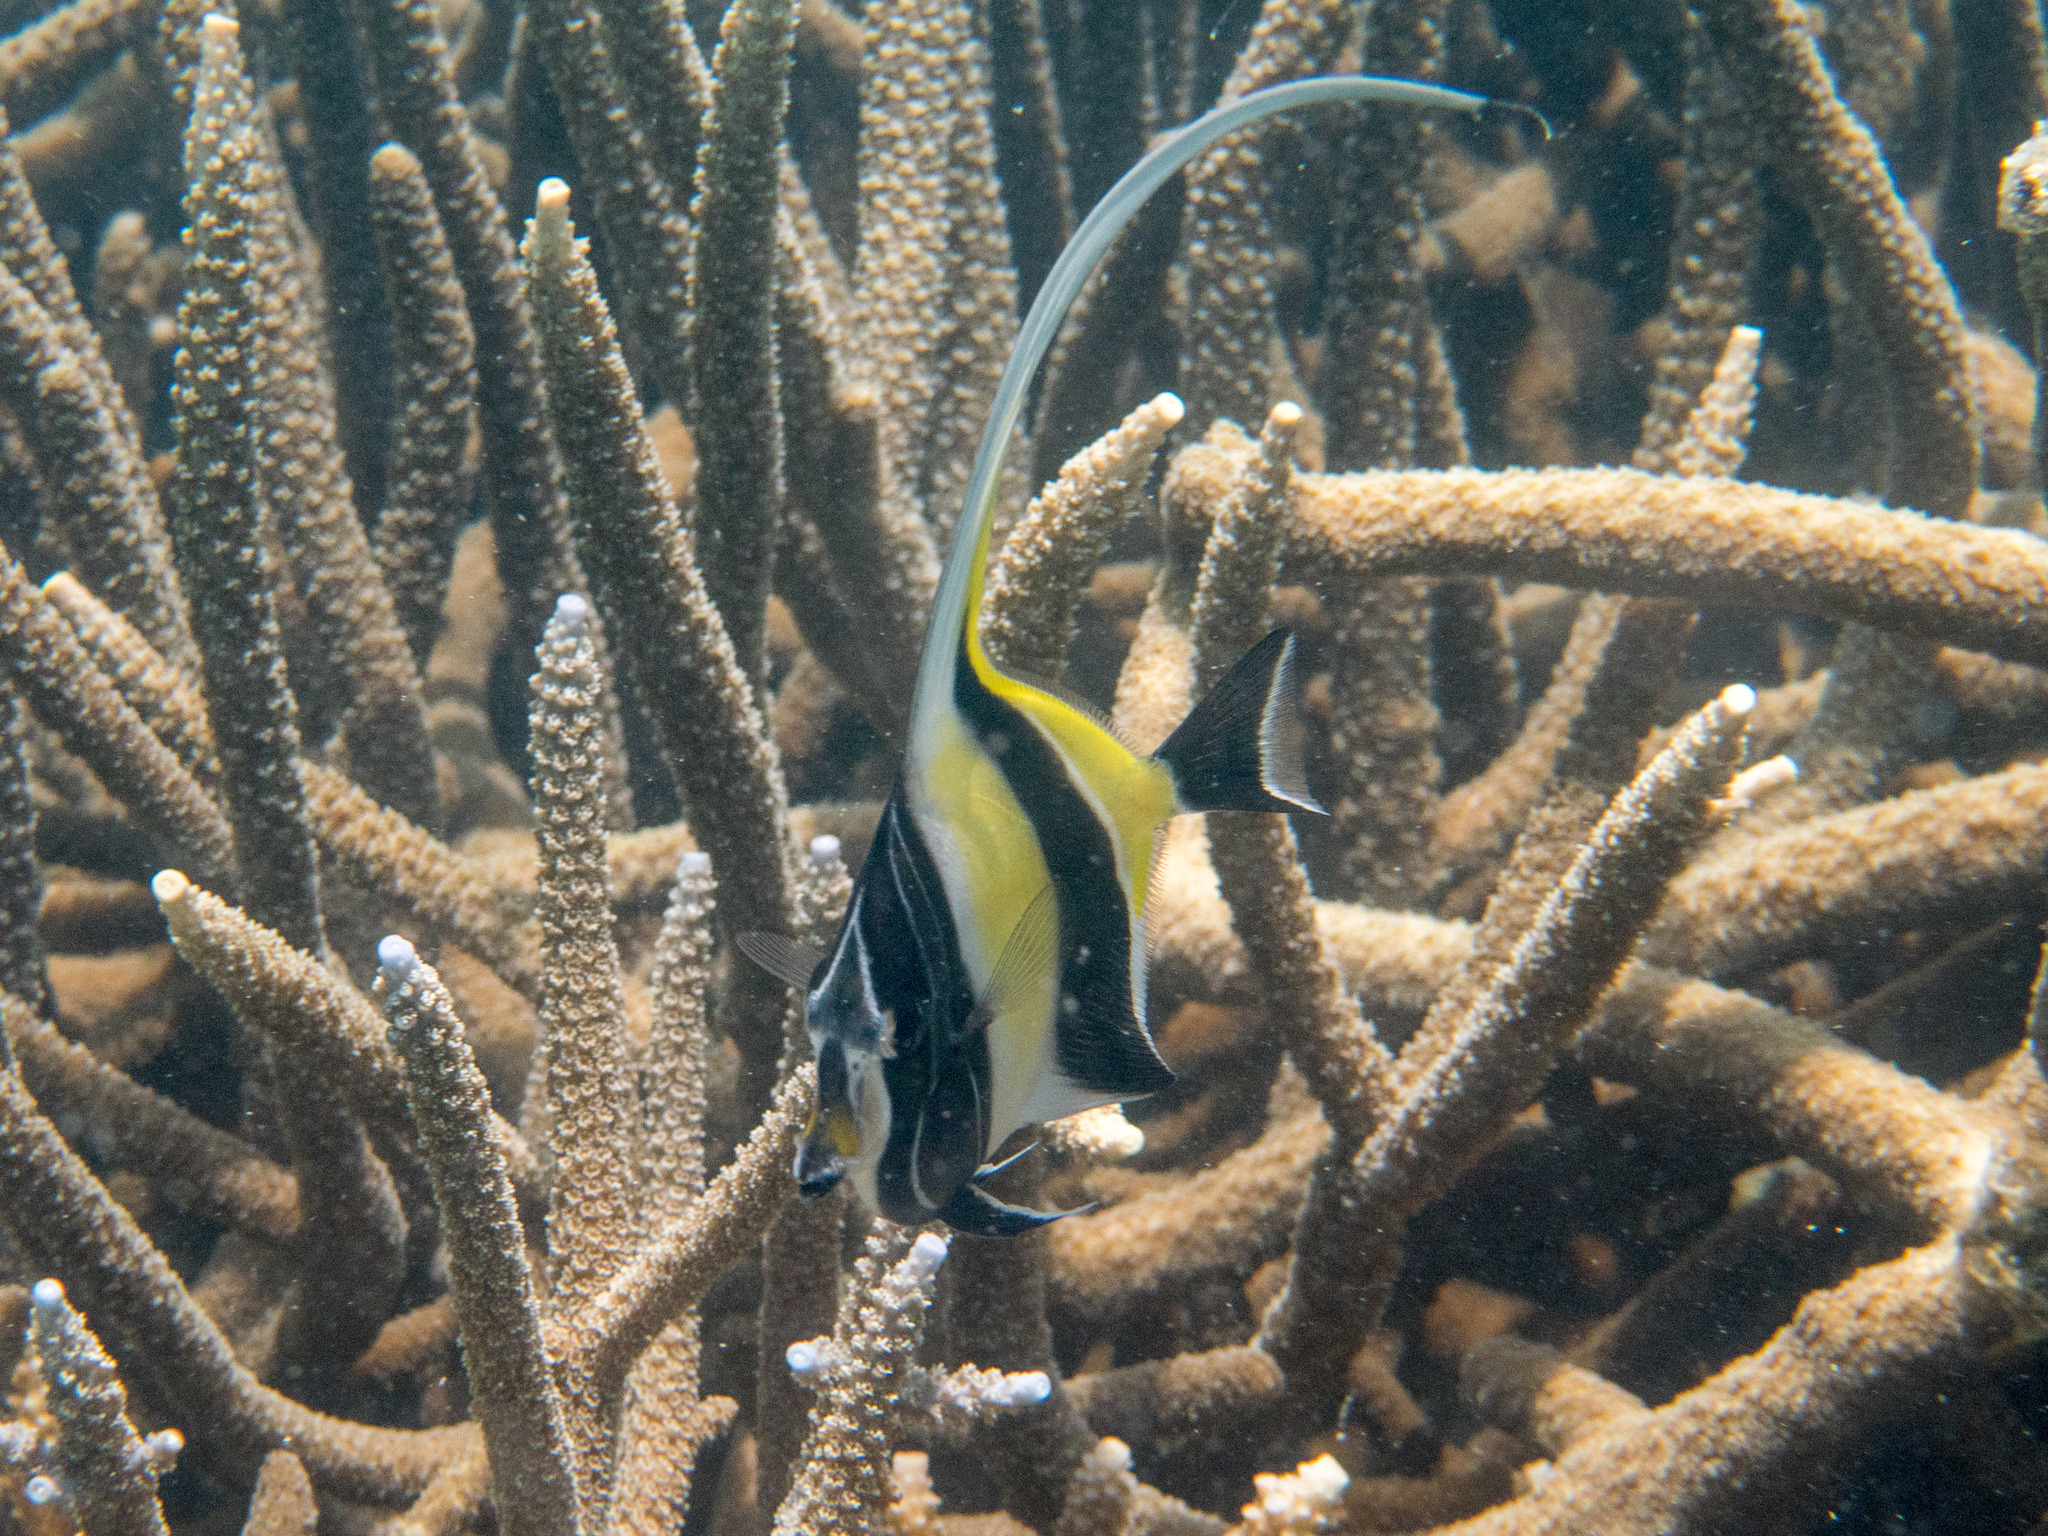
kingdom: Animalia
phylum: Chordata
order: Perciformes
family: Zanclidae
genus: Zanclus
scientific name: Zanclus cornutus
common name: Moorish idol
